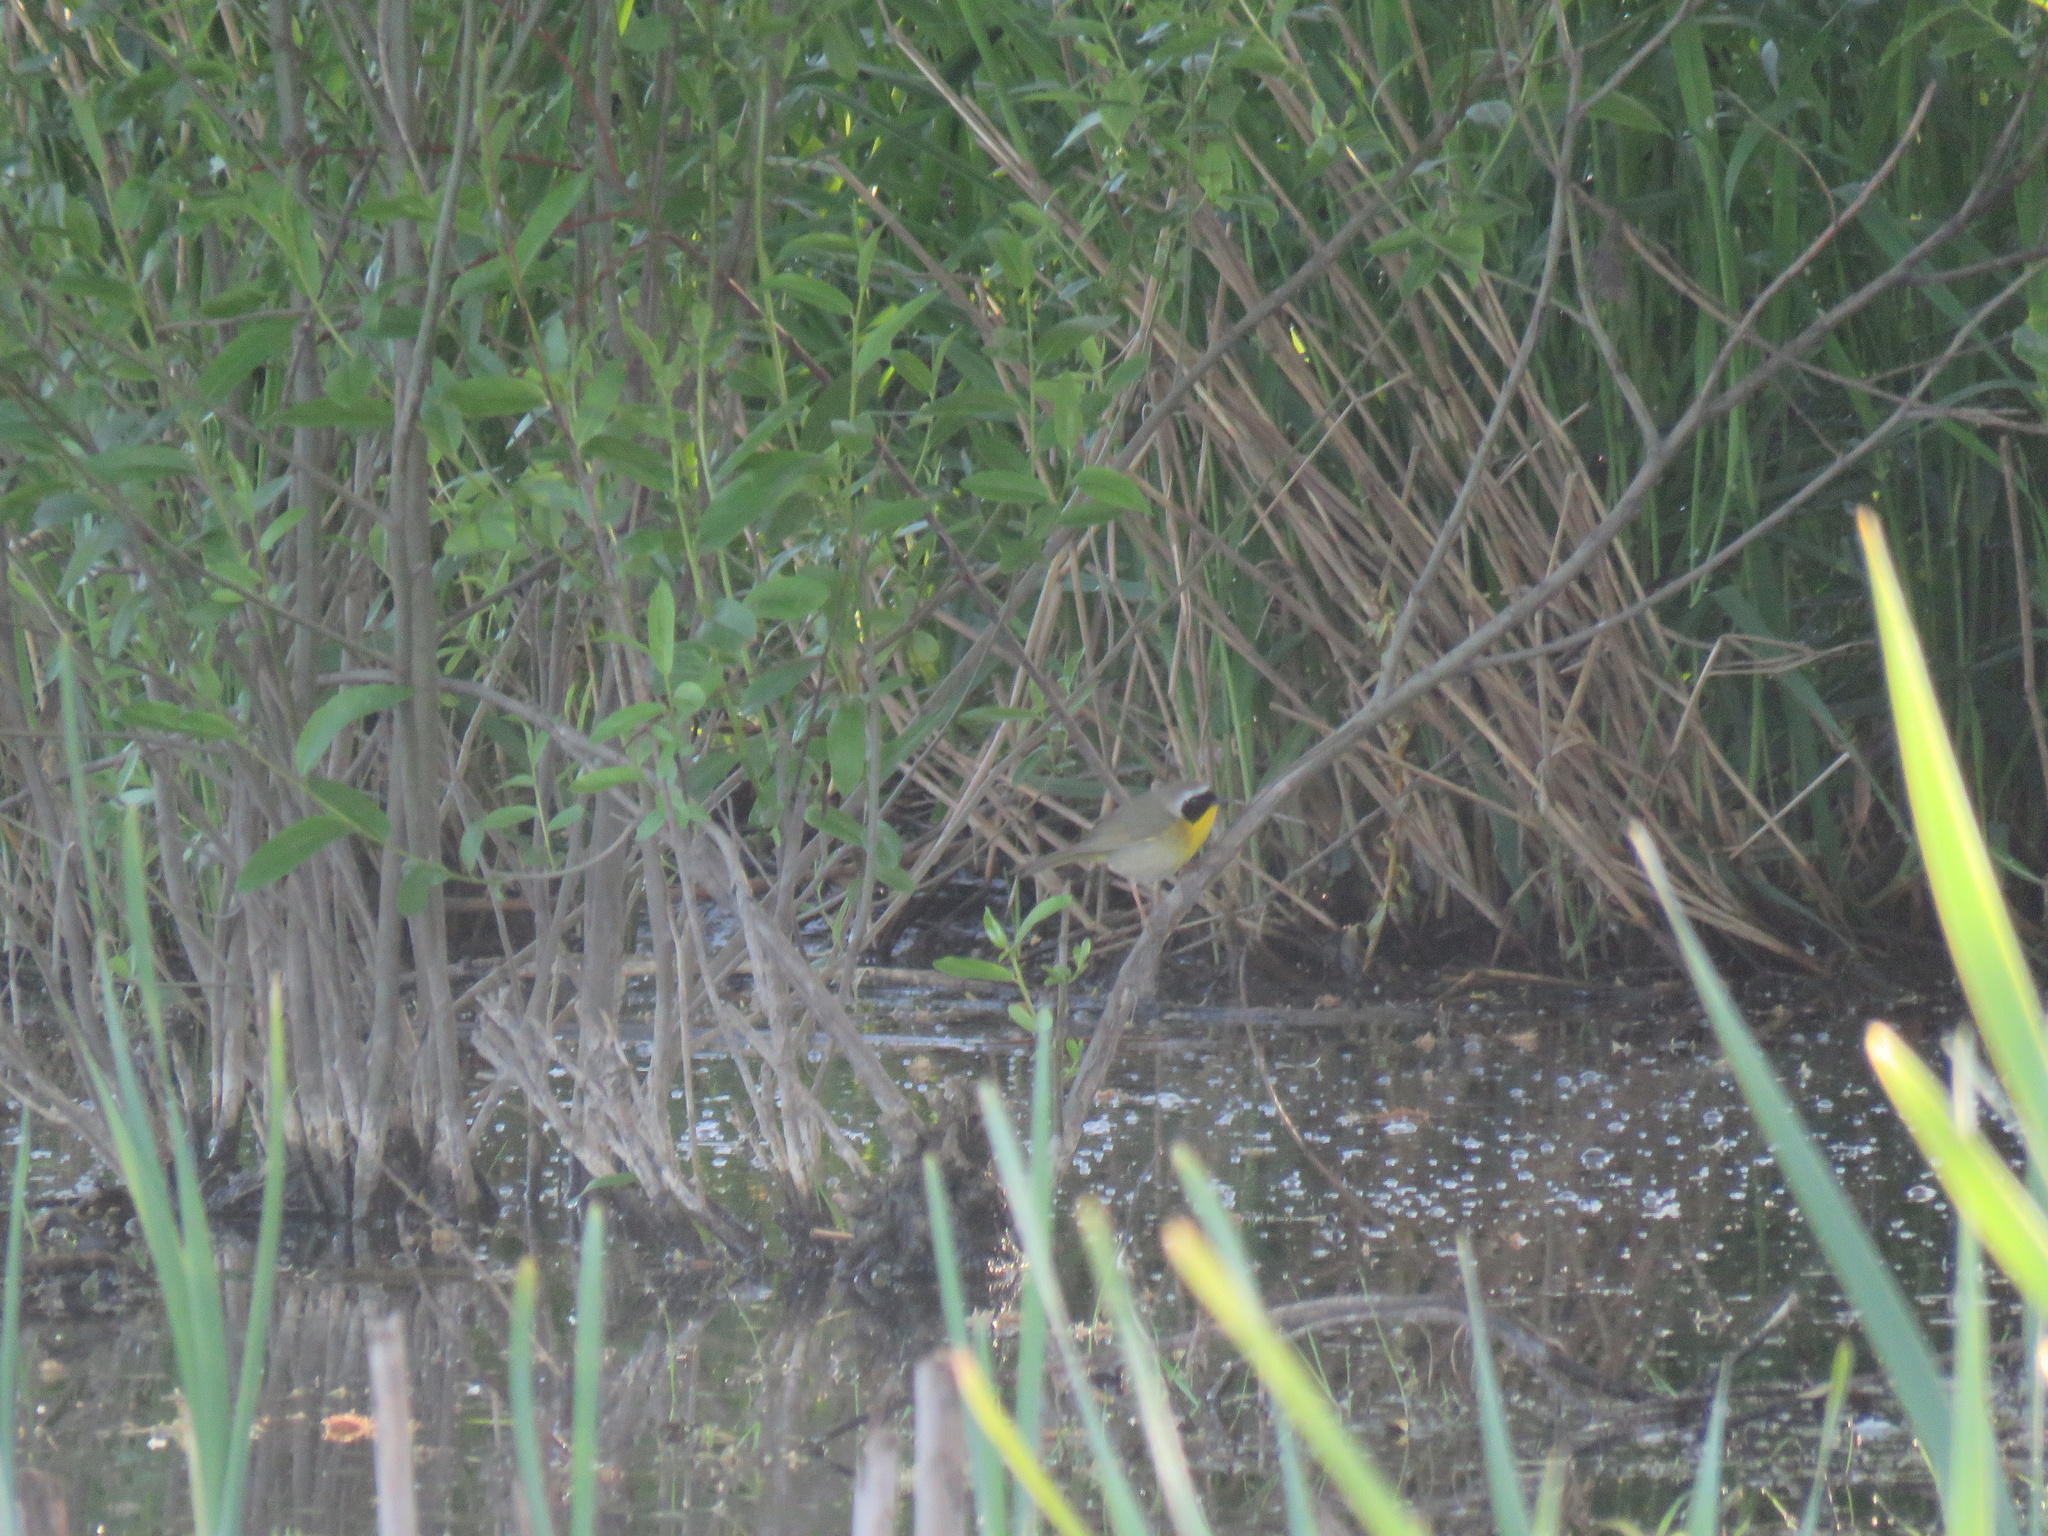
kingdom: Animalia
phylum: Chordata
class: Aves
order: Passeriformes
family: Parulidae
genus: Geothlypis
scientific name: Geothlypis trichas
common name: Common yellowthroat
